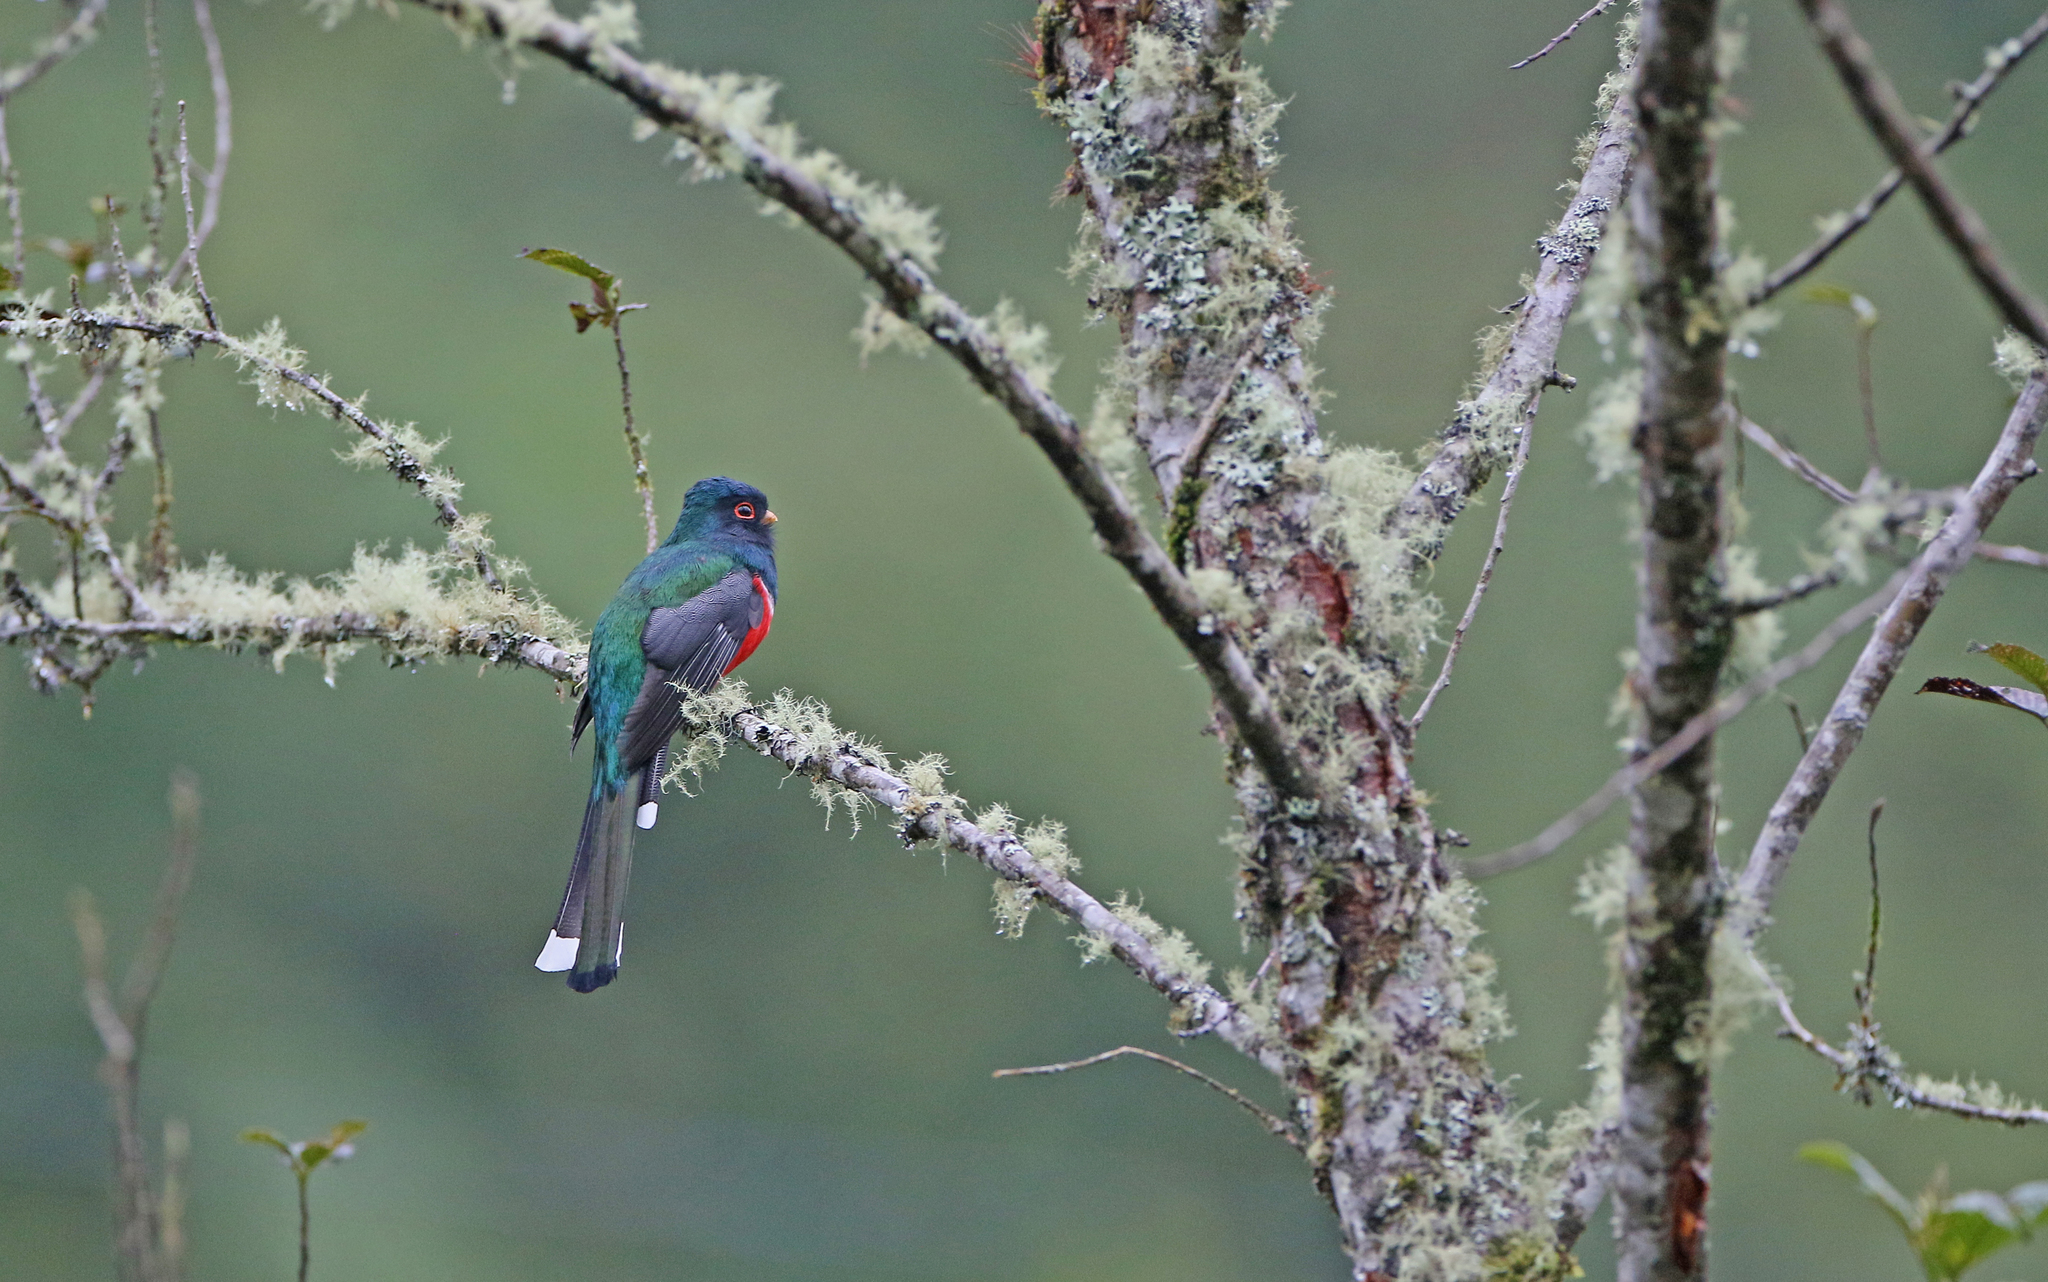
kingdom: Animalia
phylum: Chordata
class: Aves
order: Trogoniformes
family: Trogonidae
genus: Trogon
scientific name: Trogon personatus
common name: Masked trogon
